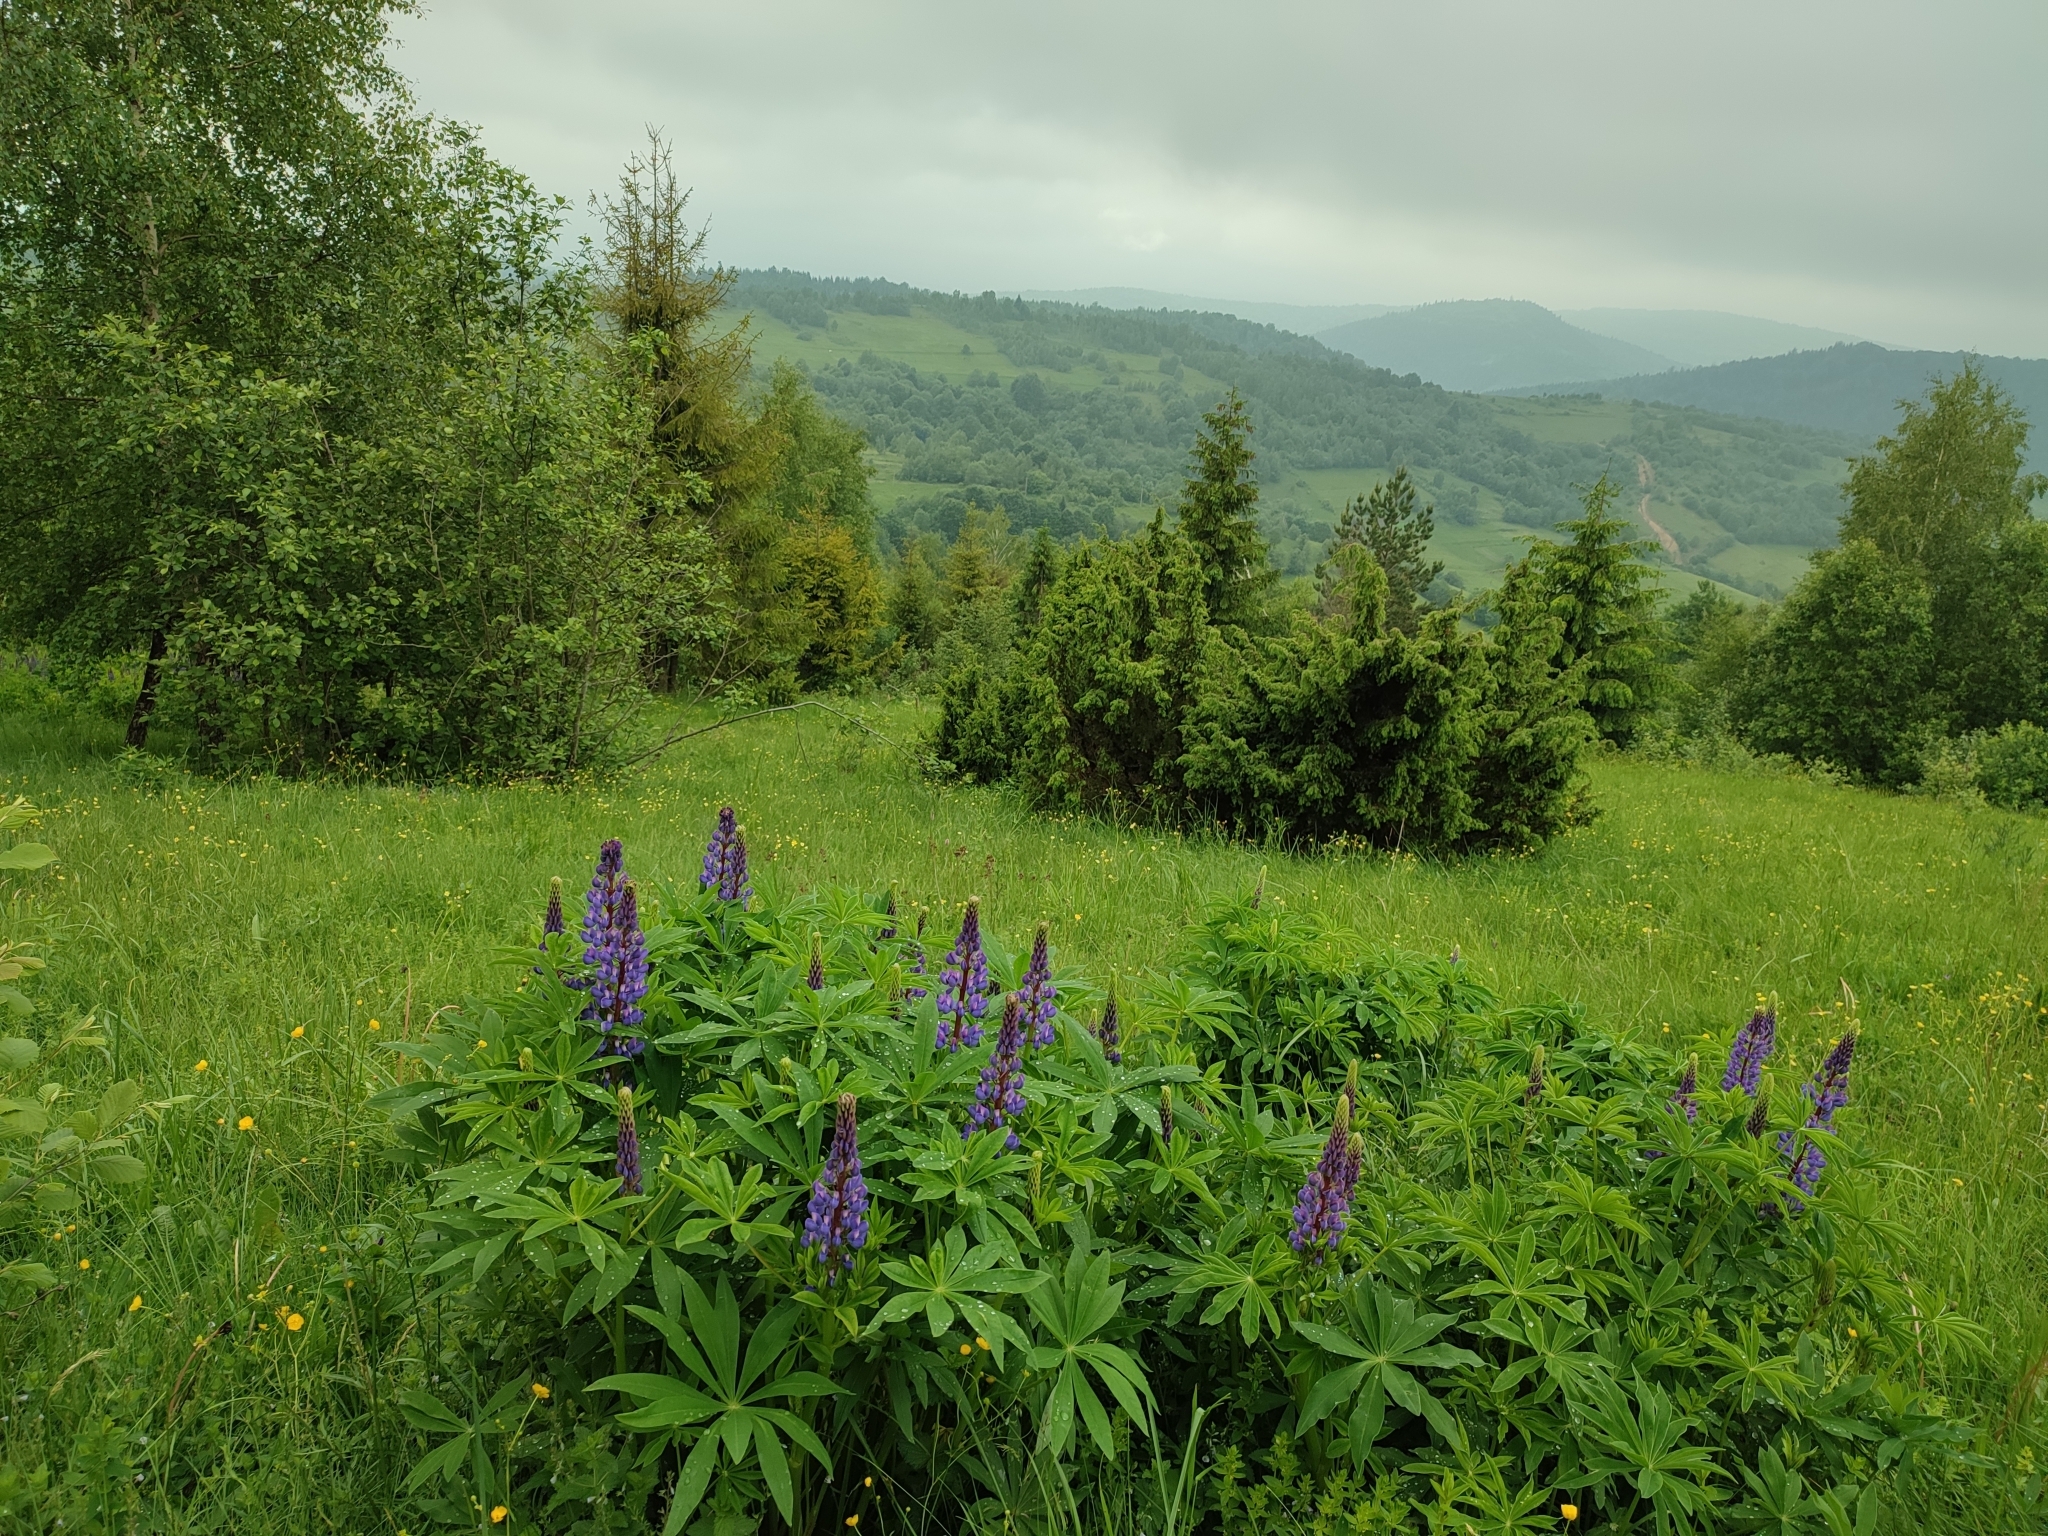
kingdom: Plantae
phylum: Tracheophyta
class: Magnoliopsida
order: Fabales
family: Fabaceae
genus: Lupinus
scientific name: Lupinus polyphyllus
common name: Garden lupin
